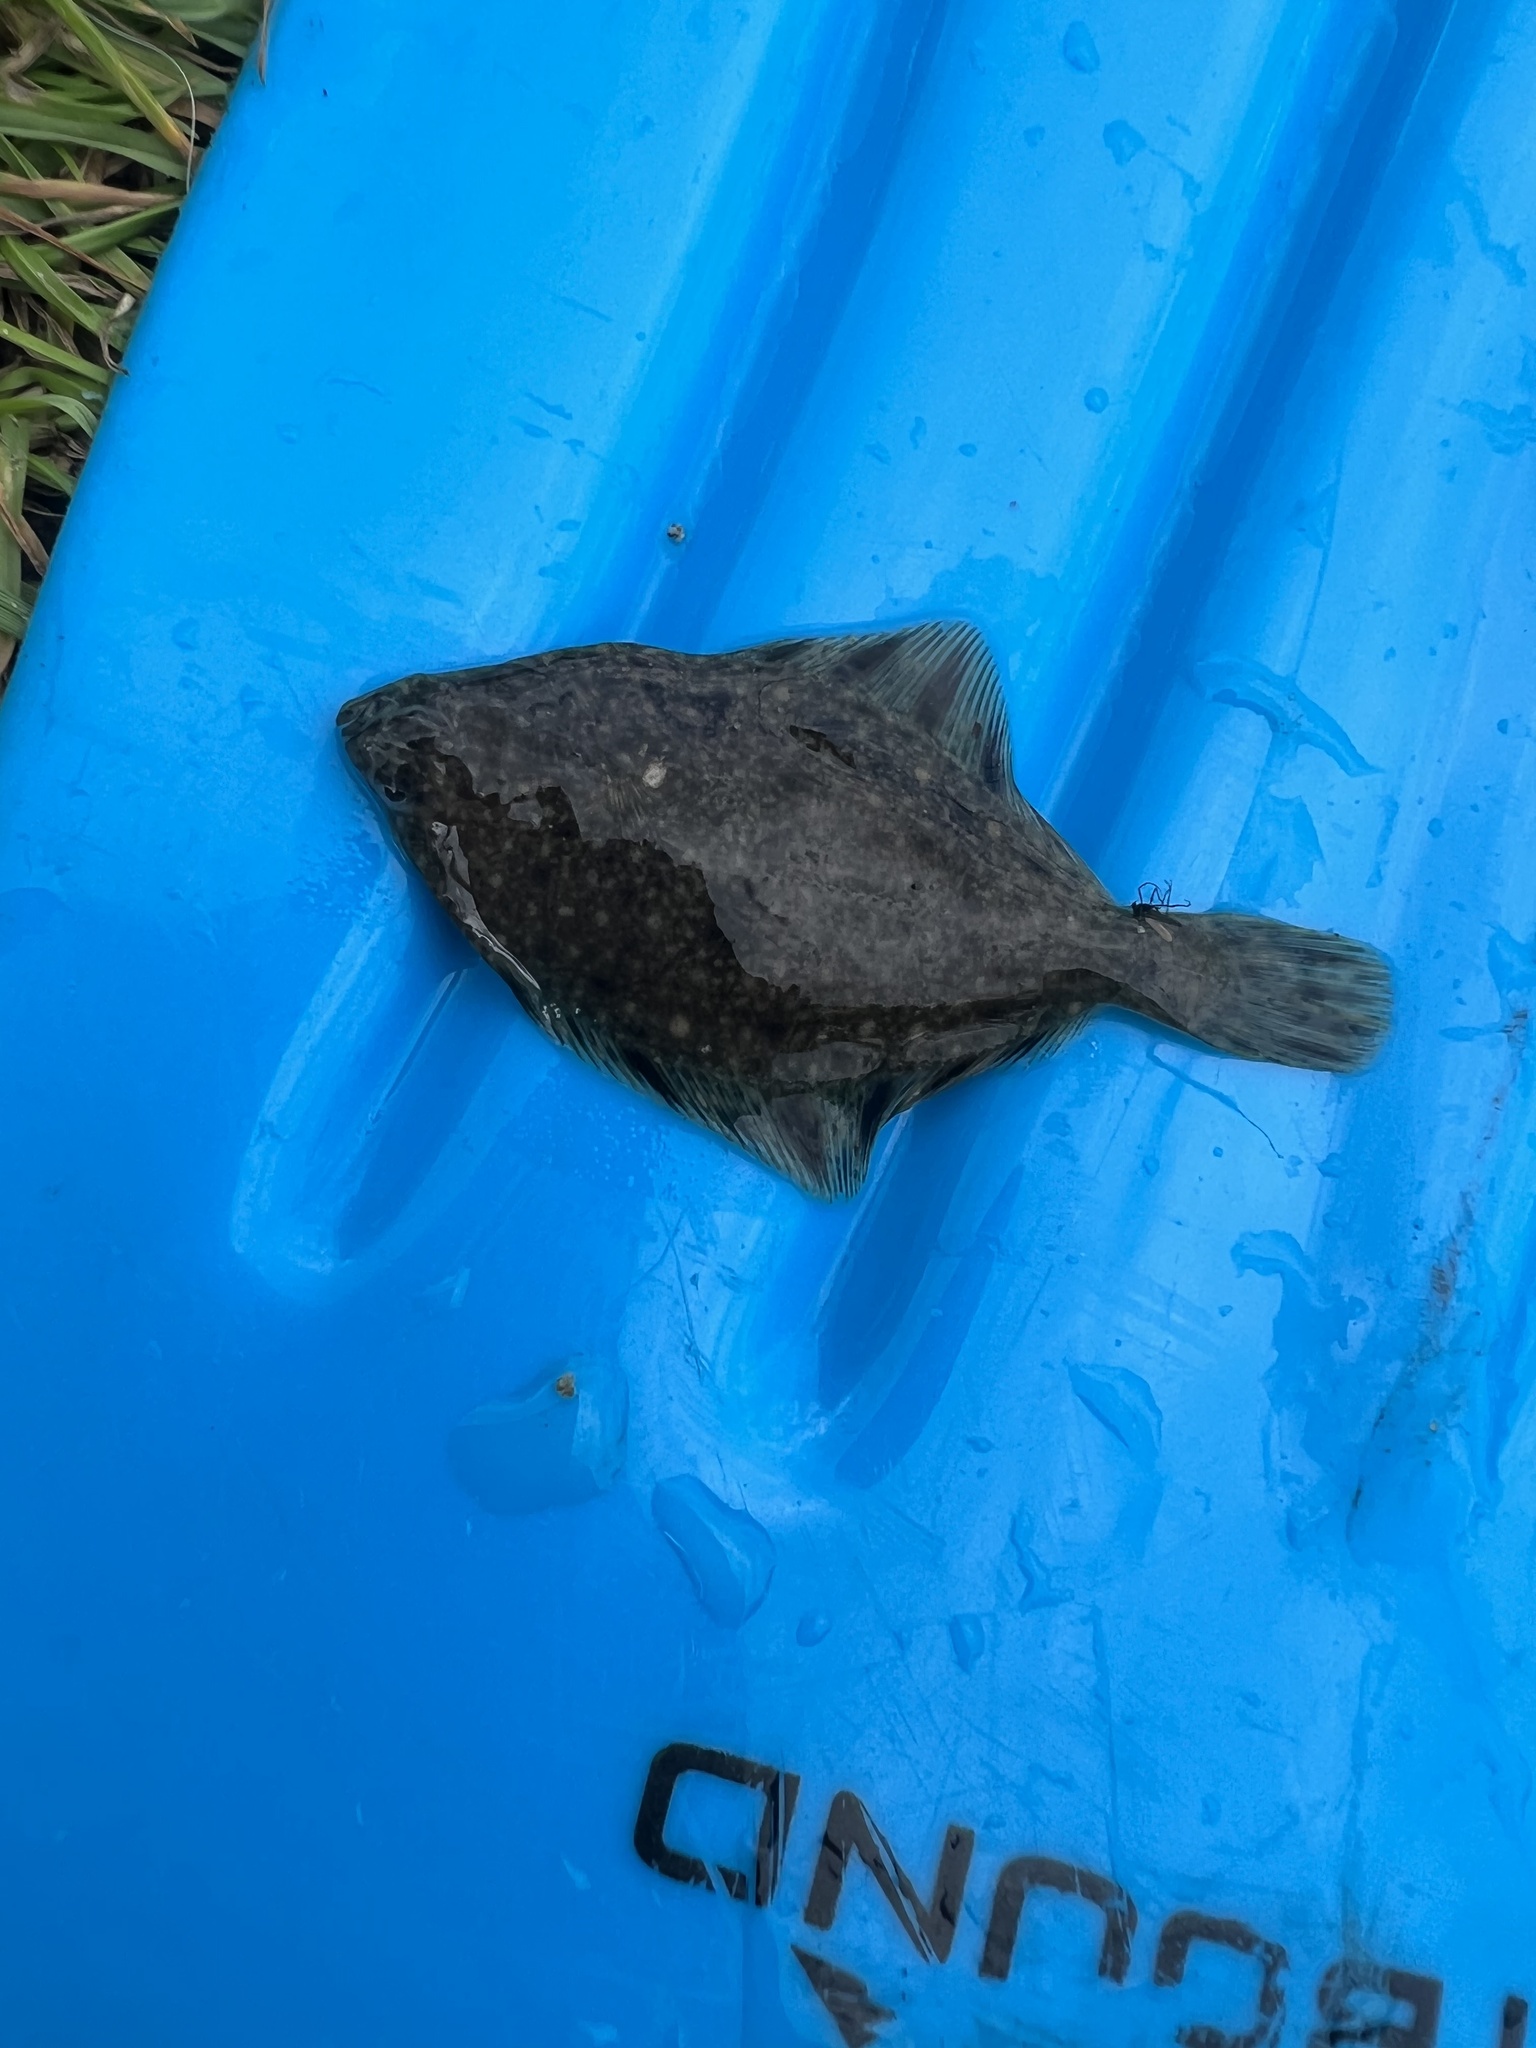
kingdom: Animalia
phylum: Chordata
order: Pleuronectiformes
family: Pleuronectidae
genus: Platichthys
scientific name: Platichthys stellatus
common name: Starry flounder
